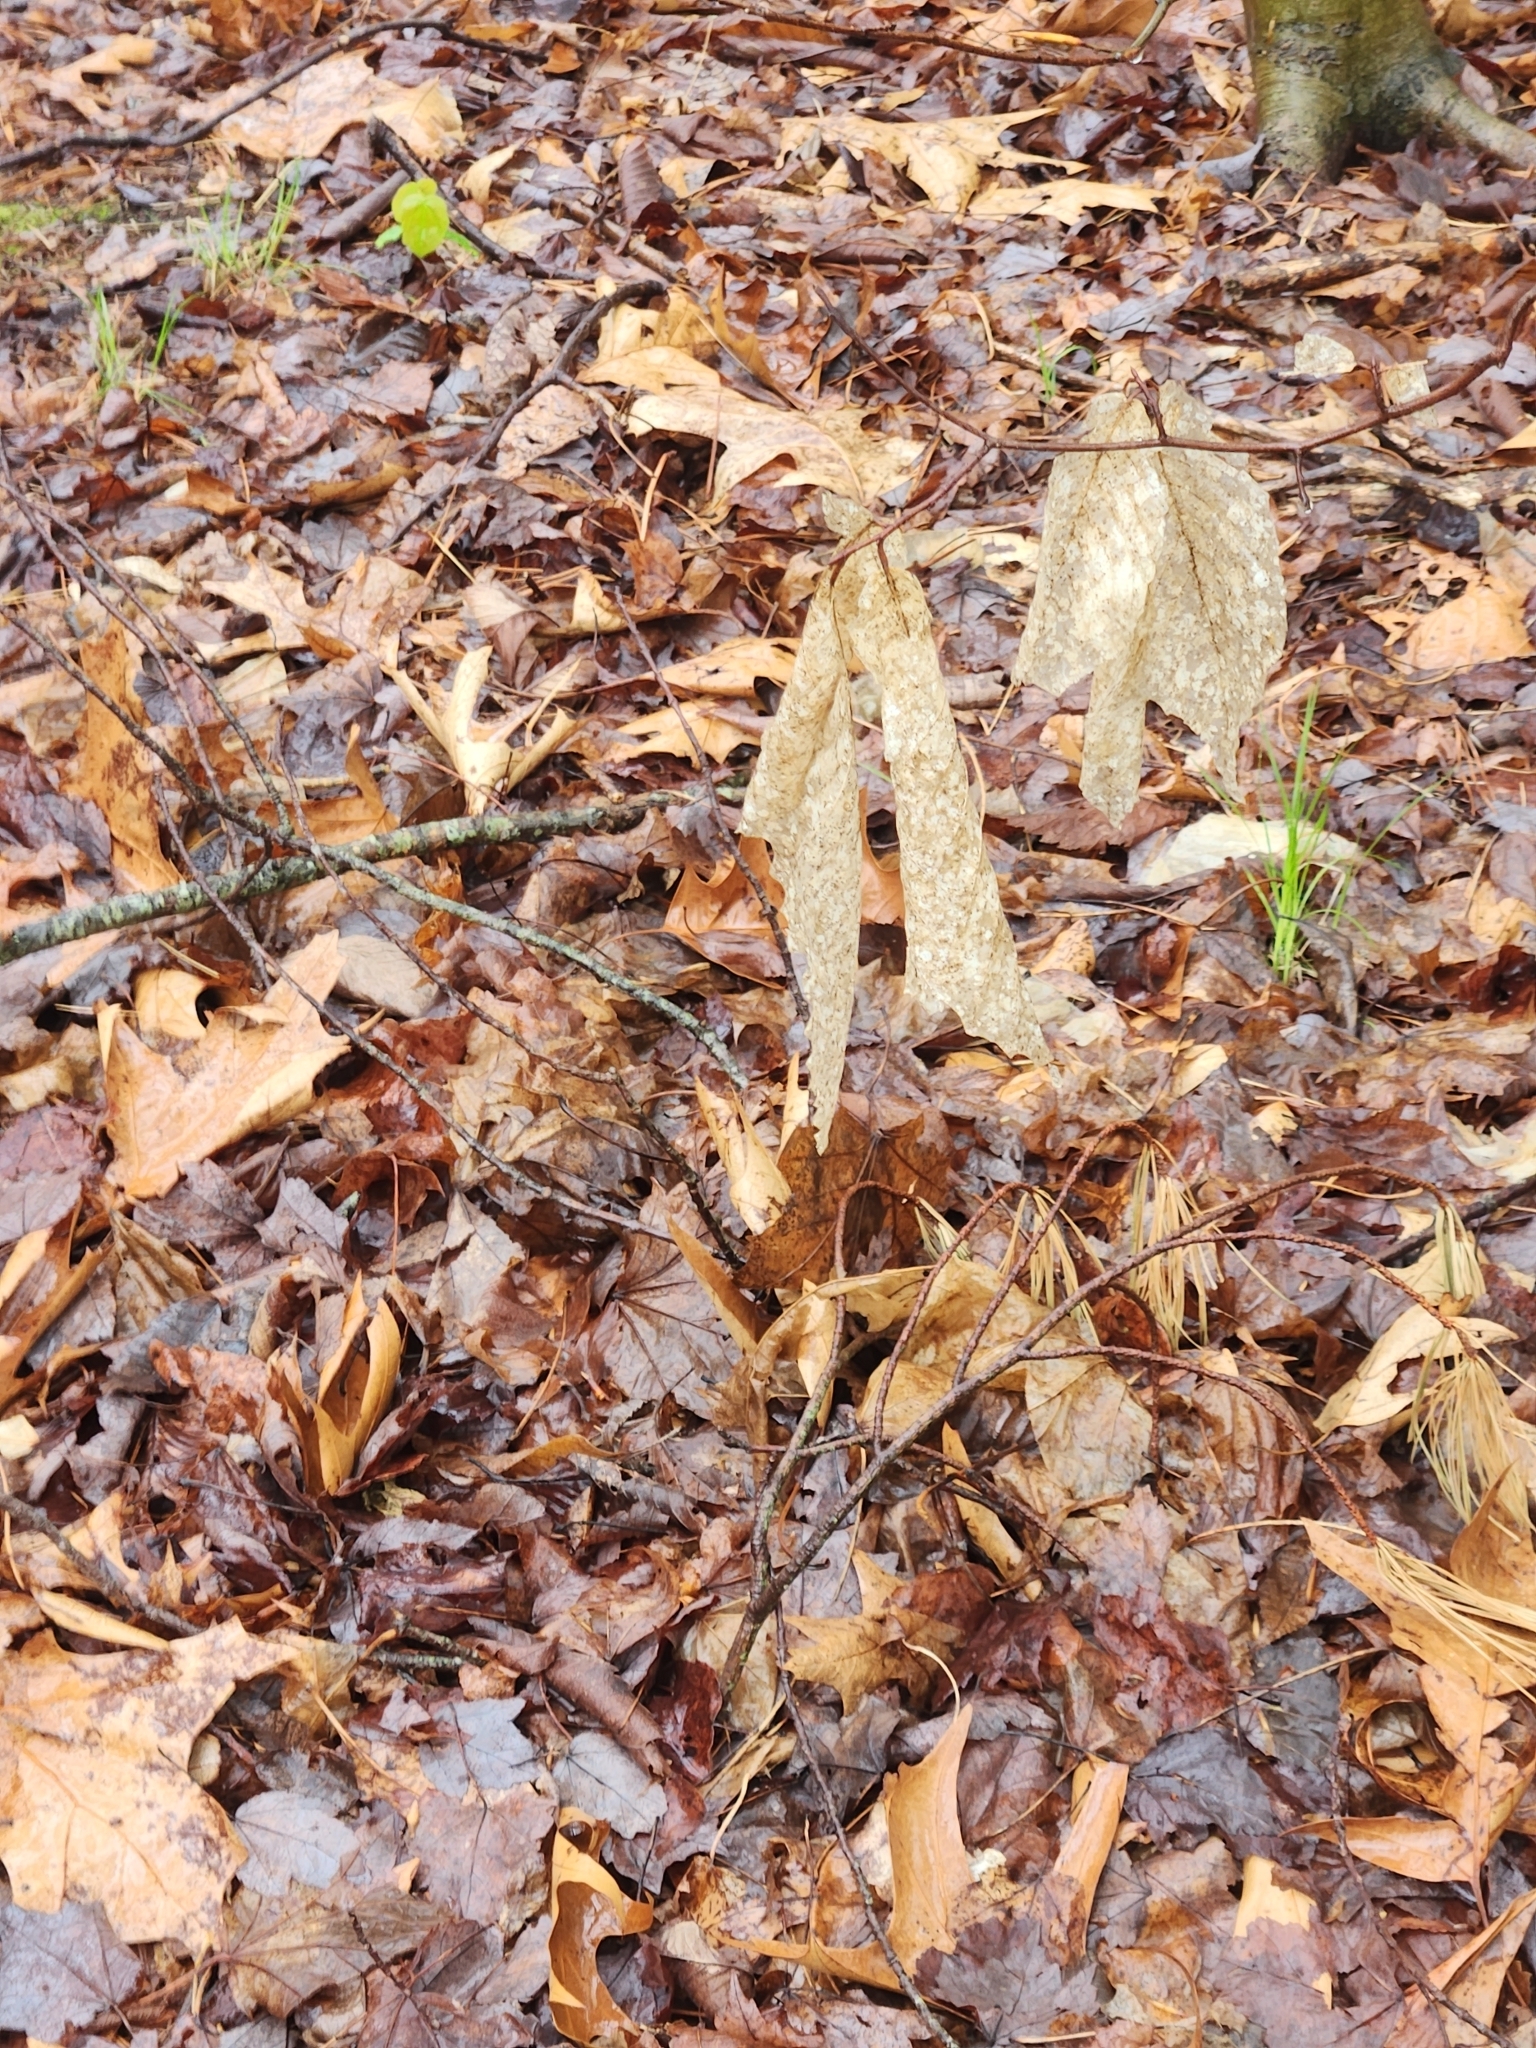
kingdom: Plantae
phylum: Tracheophyta
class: Magnoliopsida
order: Fagales
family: Fagaceae
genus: Fagus
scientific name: Fagus grandifolia
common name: American beech
